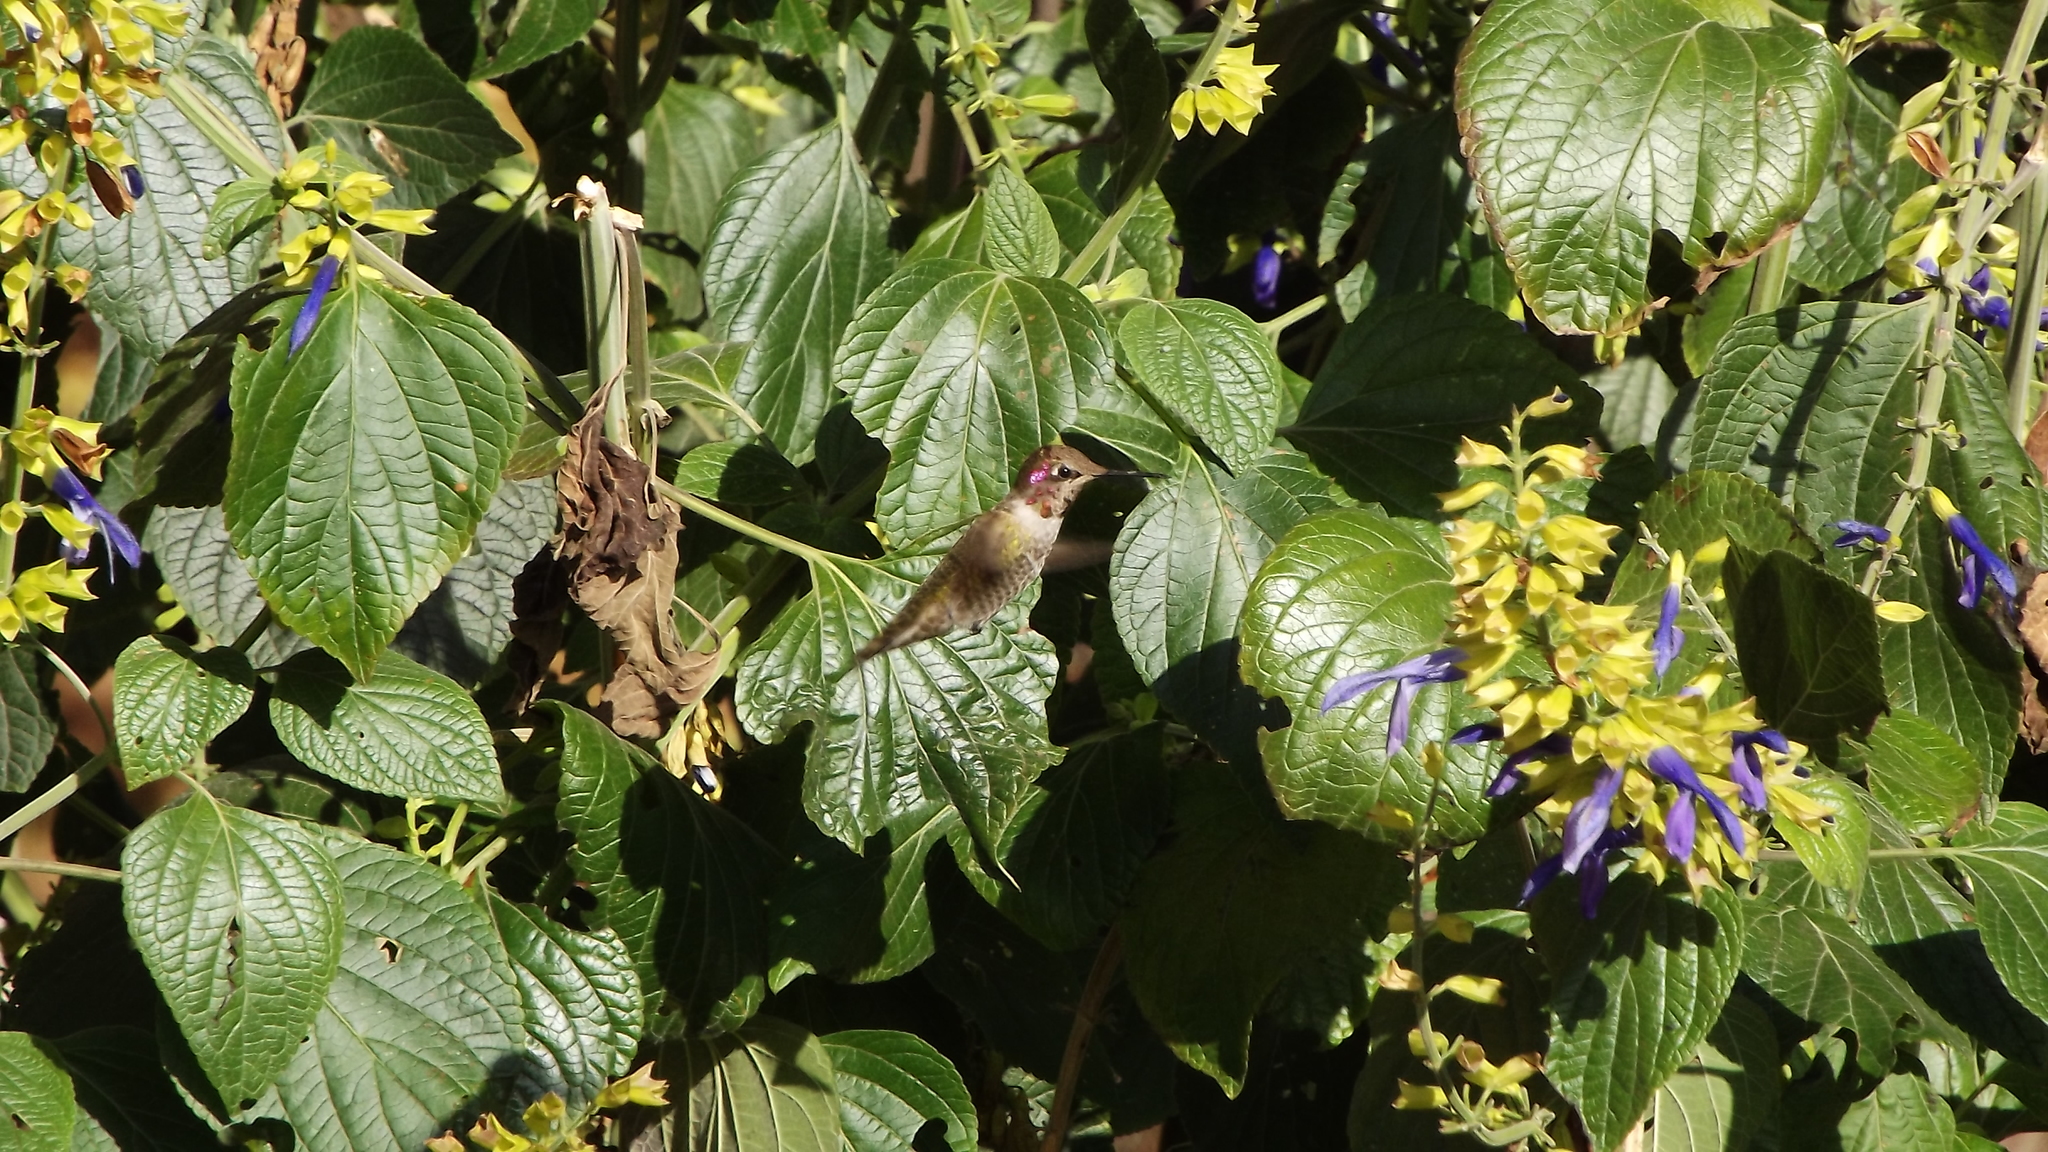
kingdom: Animalia
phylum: Chordata
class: Aves
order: Apodiformes
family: Trochilidae
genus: Calypte
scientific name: Calypte anna
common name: Anna's hummingbird
